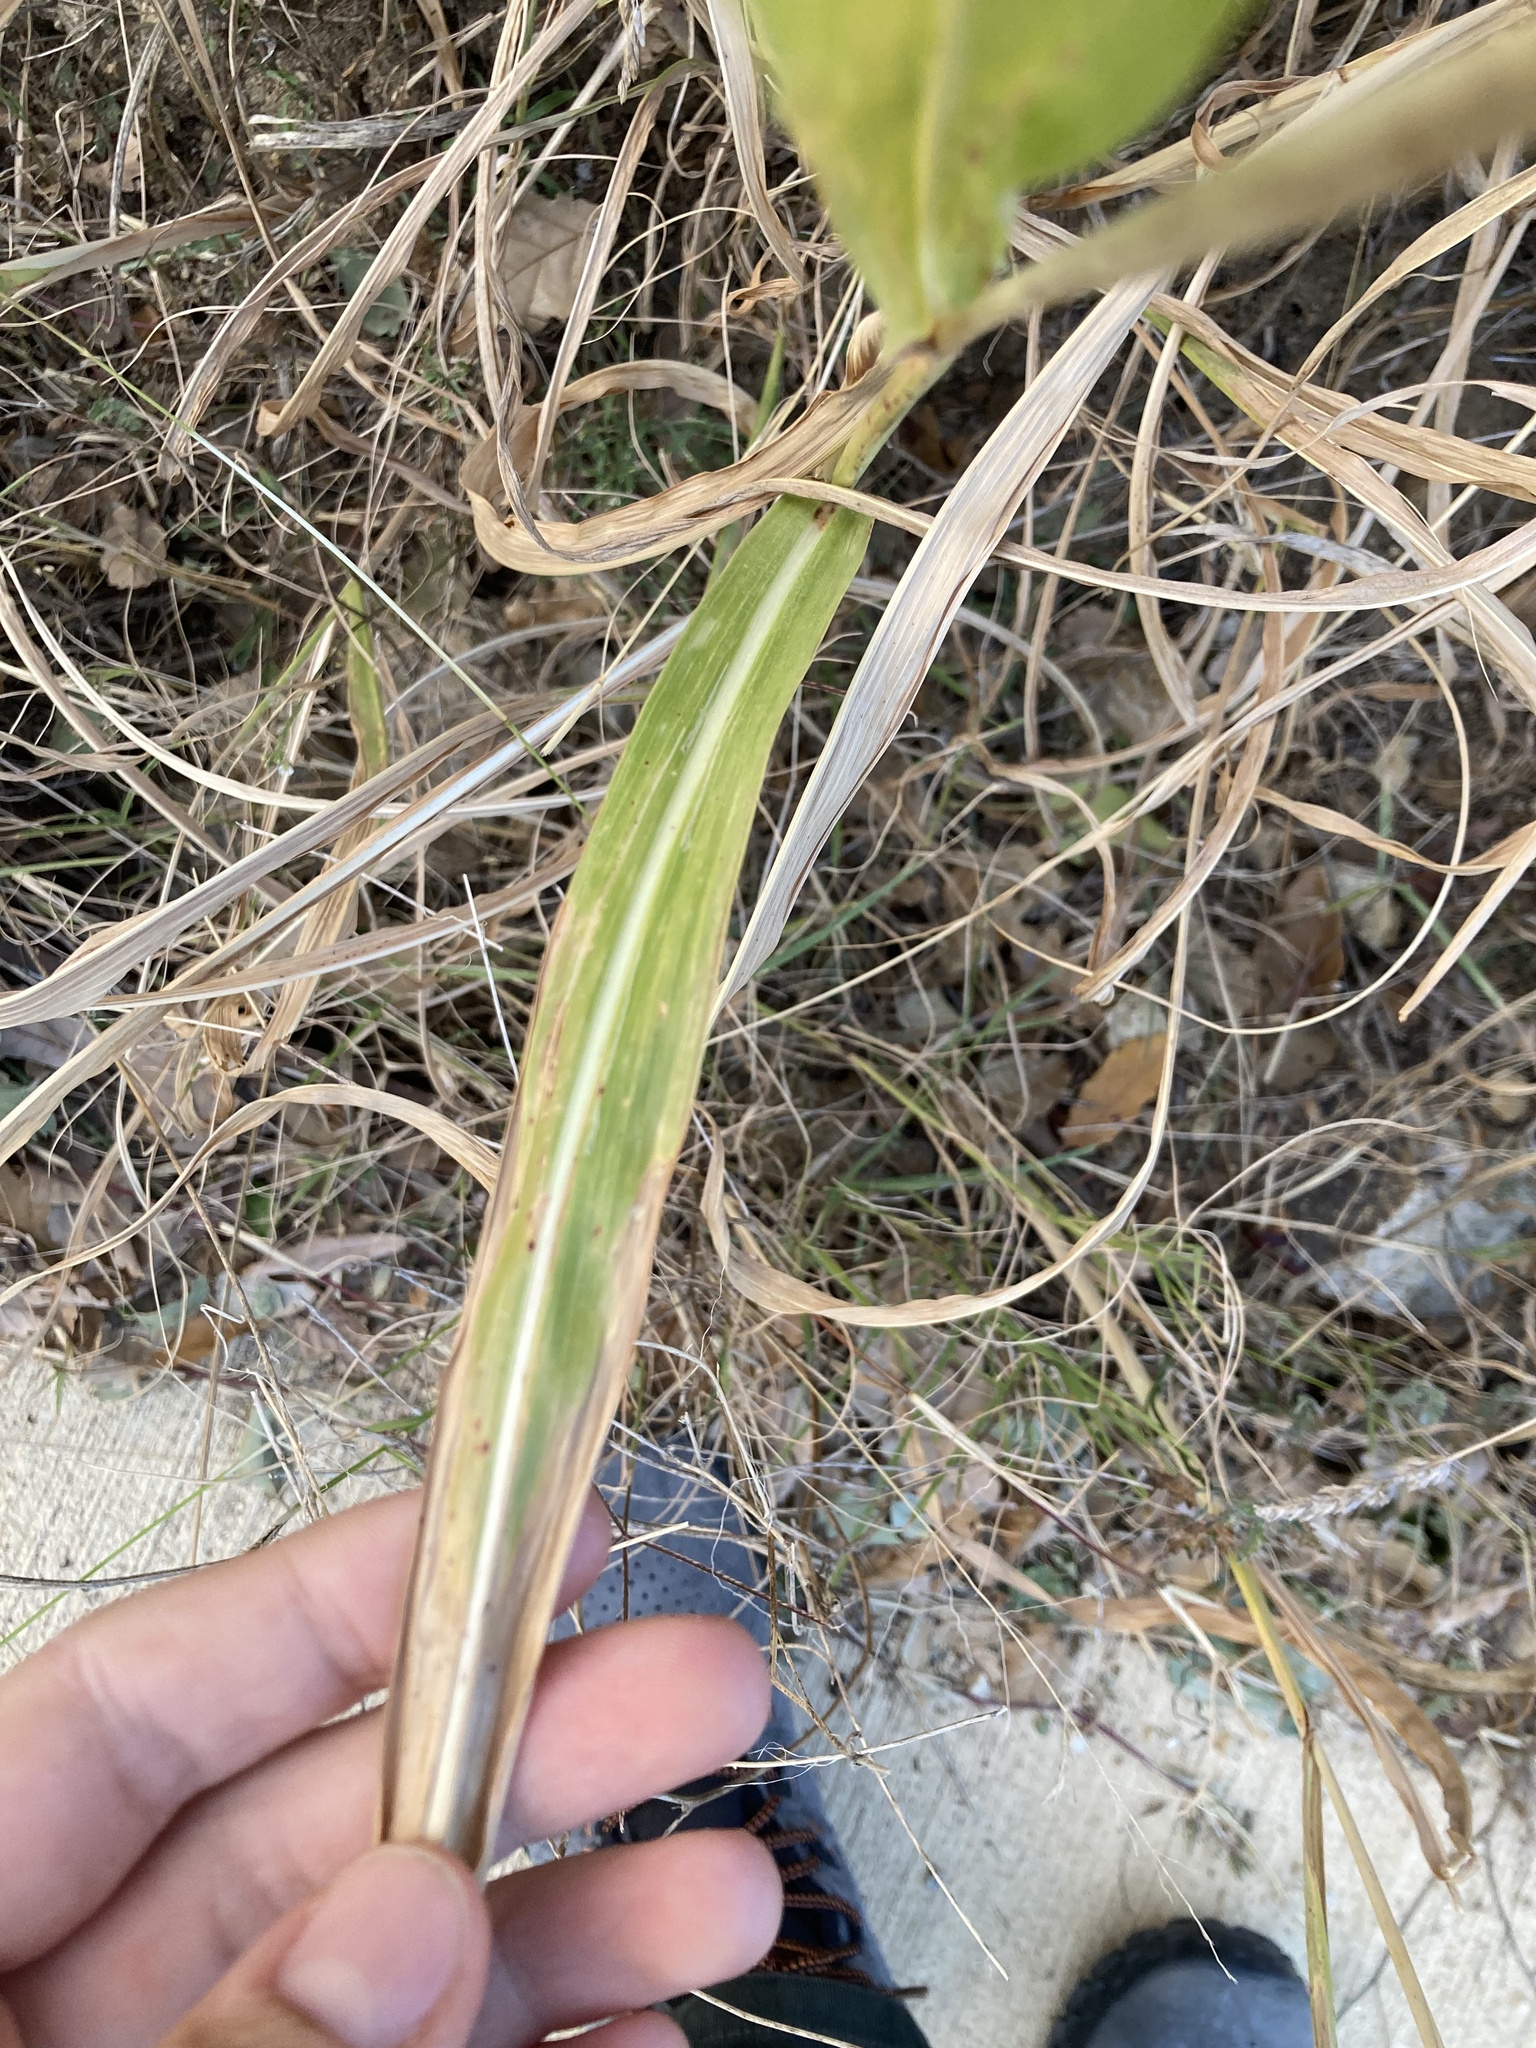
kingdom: Plantae
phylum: Tracheophyta
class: Liliopsida
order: Poales
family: Poaceae
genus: Sorghum
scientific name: Sorghum halepense
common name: Johnson-grass
